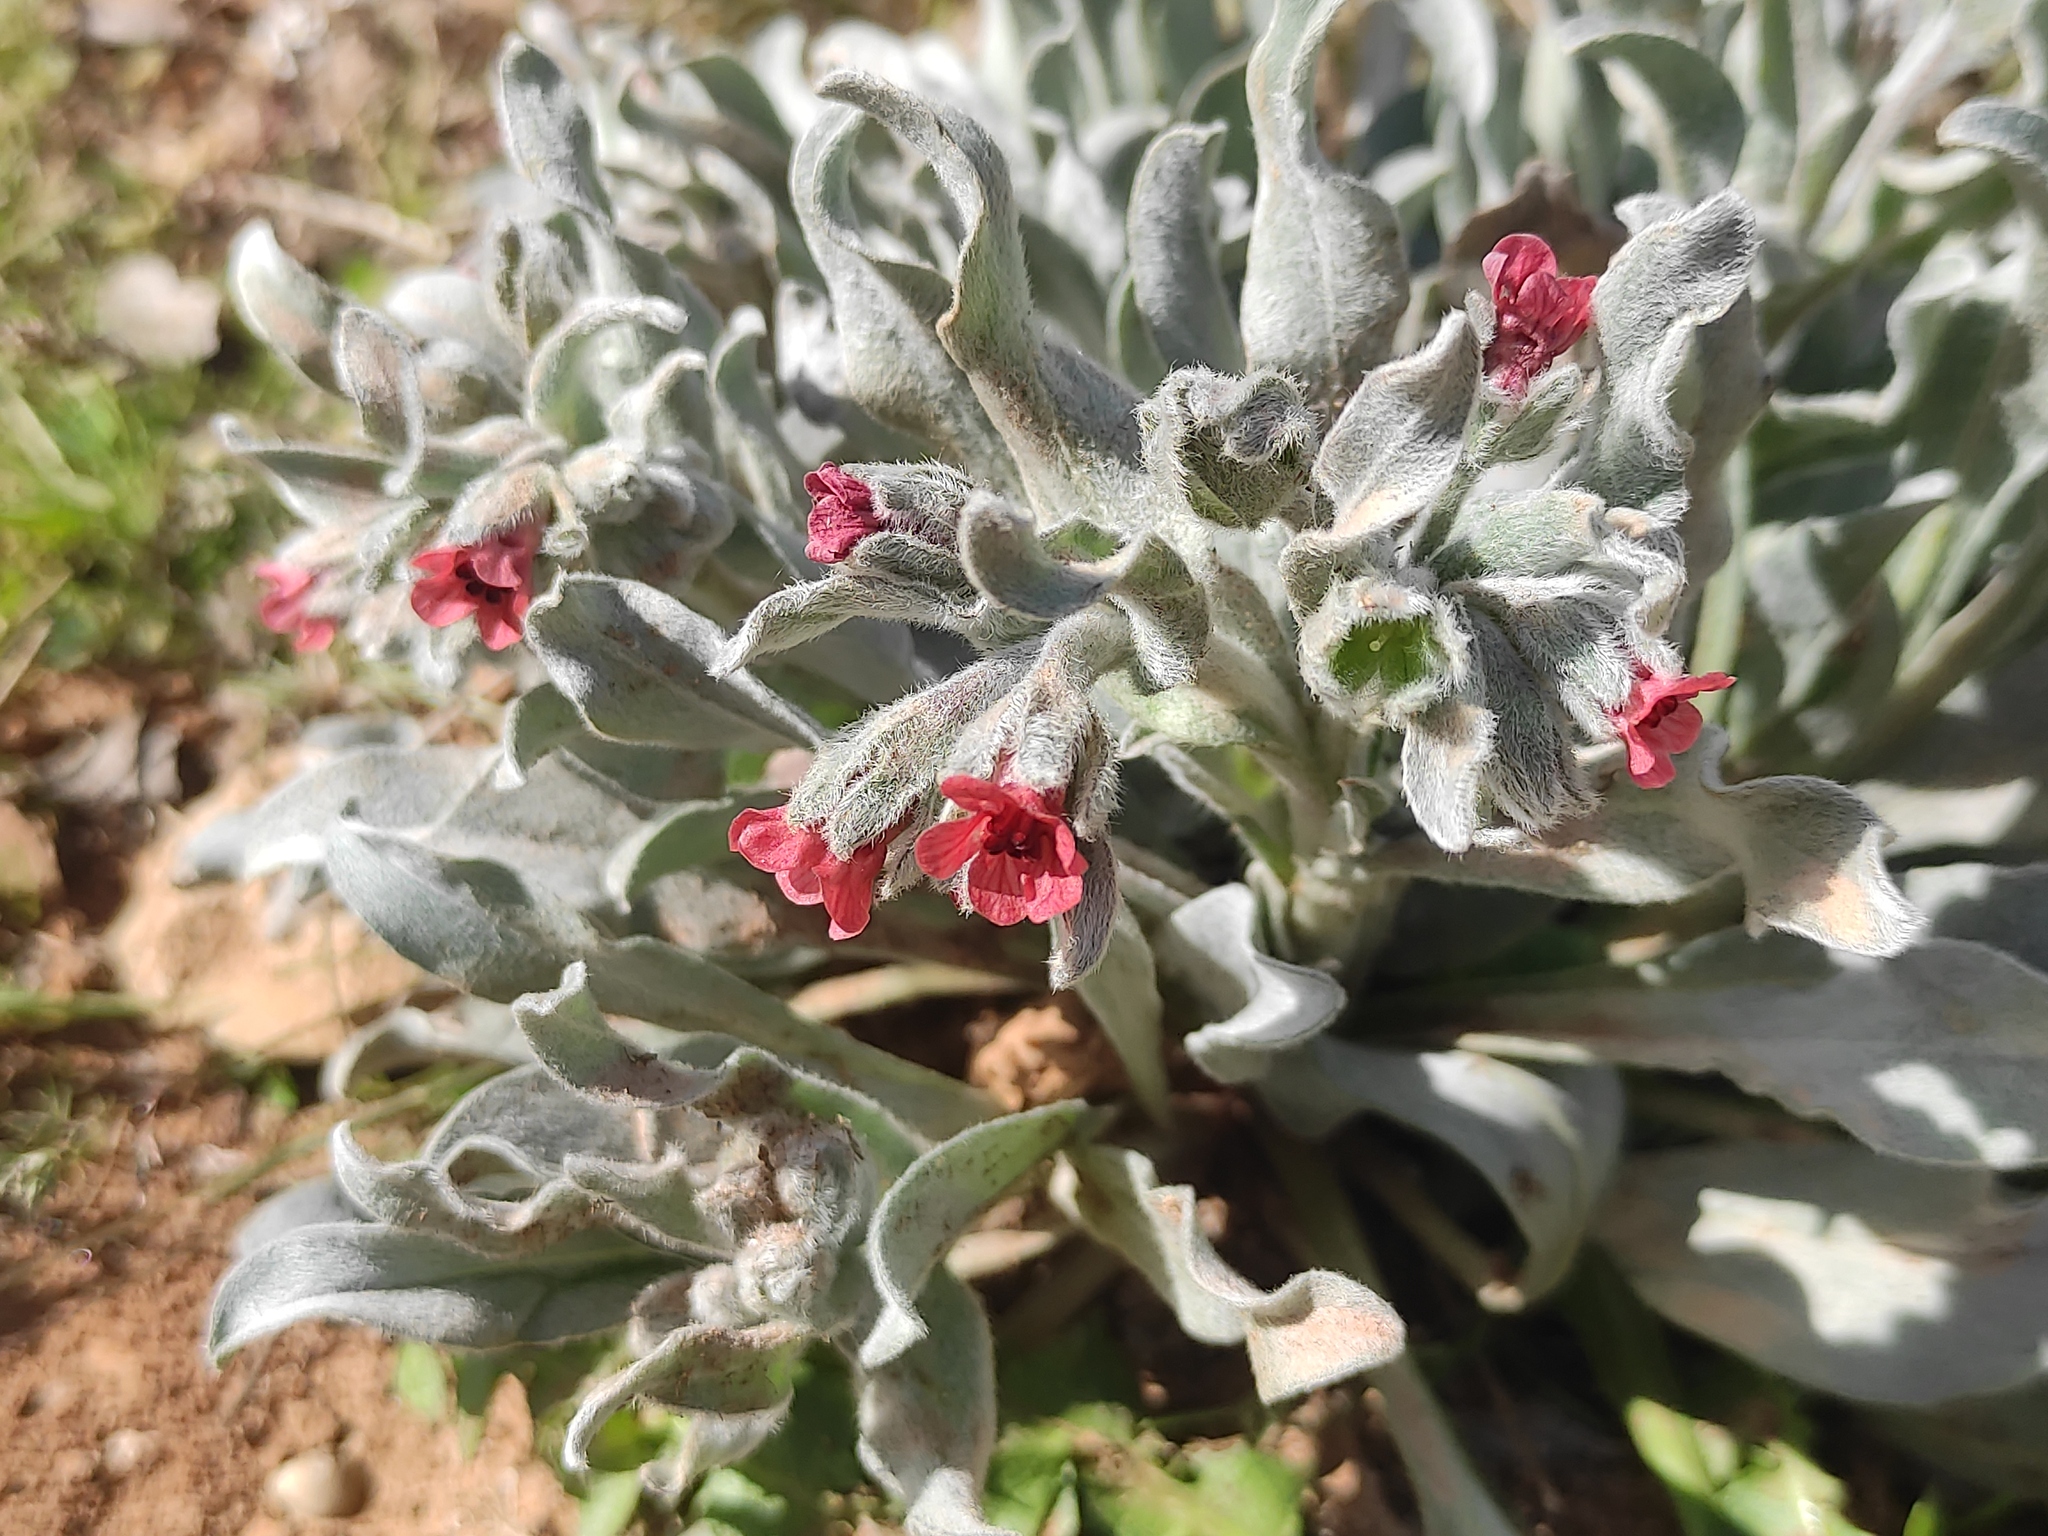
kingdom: Plantae
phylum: Tracheophyta
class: Magnoliopsida
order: Boraginales
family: Boraginaceae
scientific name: Boraginaceae
